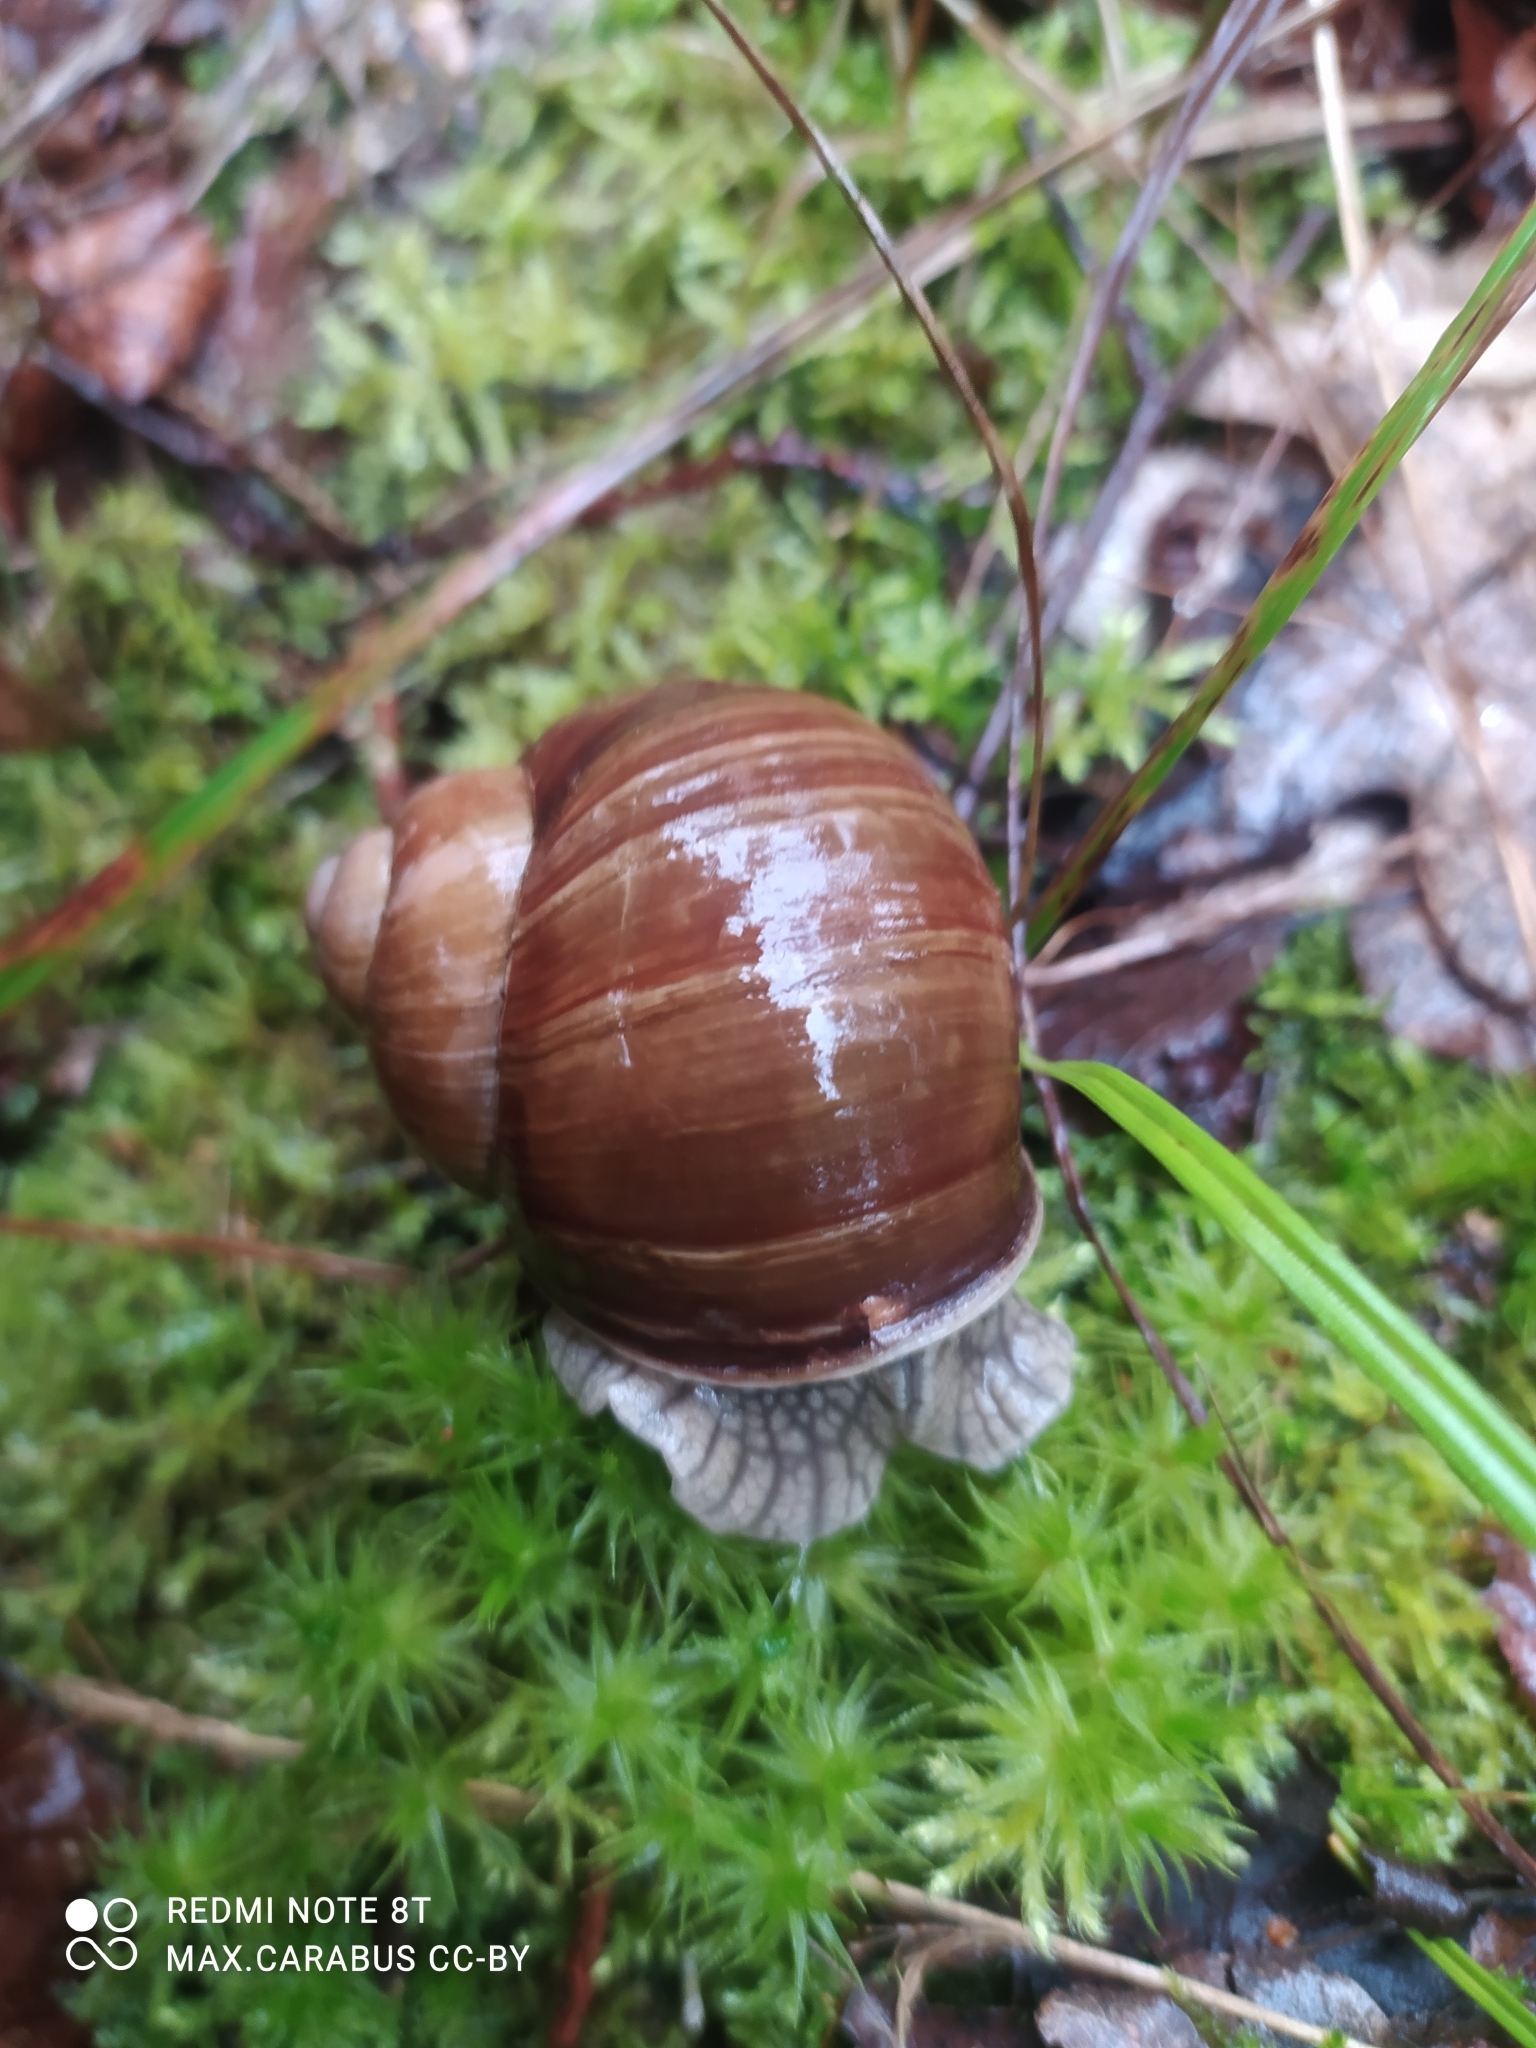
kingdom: Animalia
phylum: Mollusca
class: Gastropoda
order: Stylommatophora
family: Helicidae
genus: Helix
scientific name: Helix pomatia
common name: Roman snail
